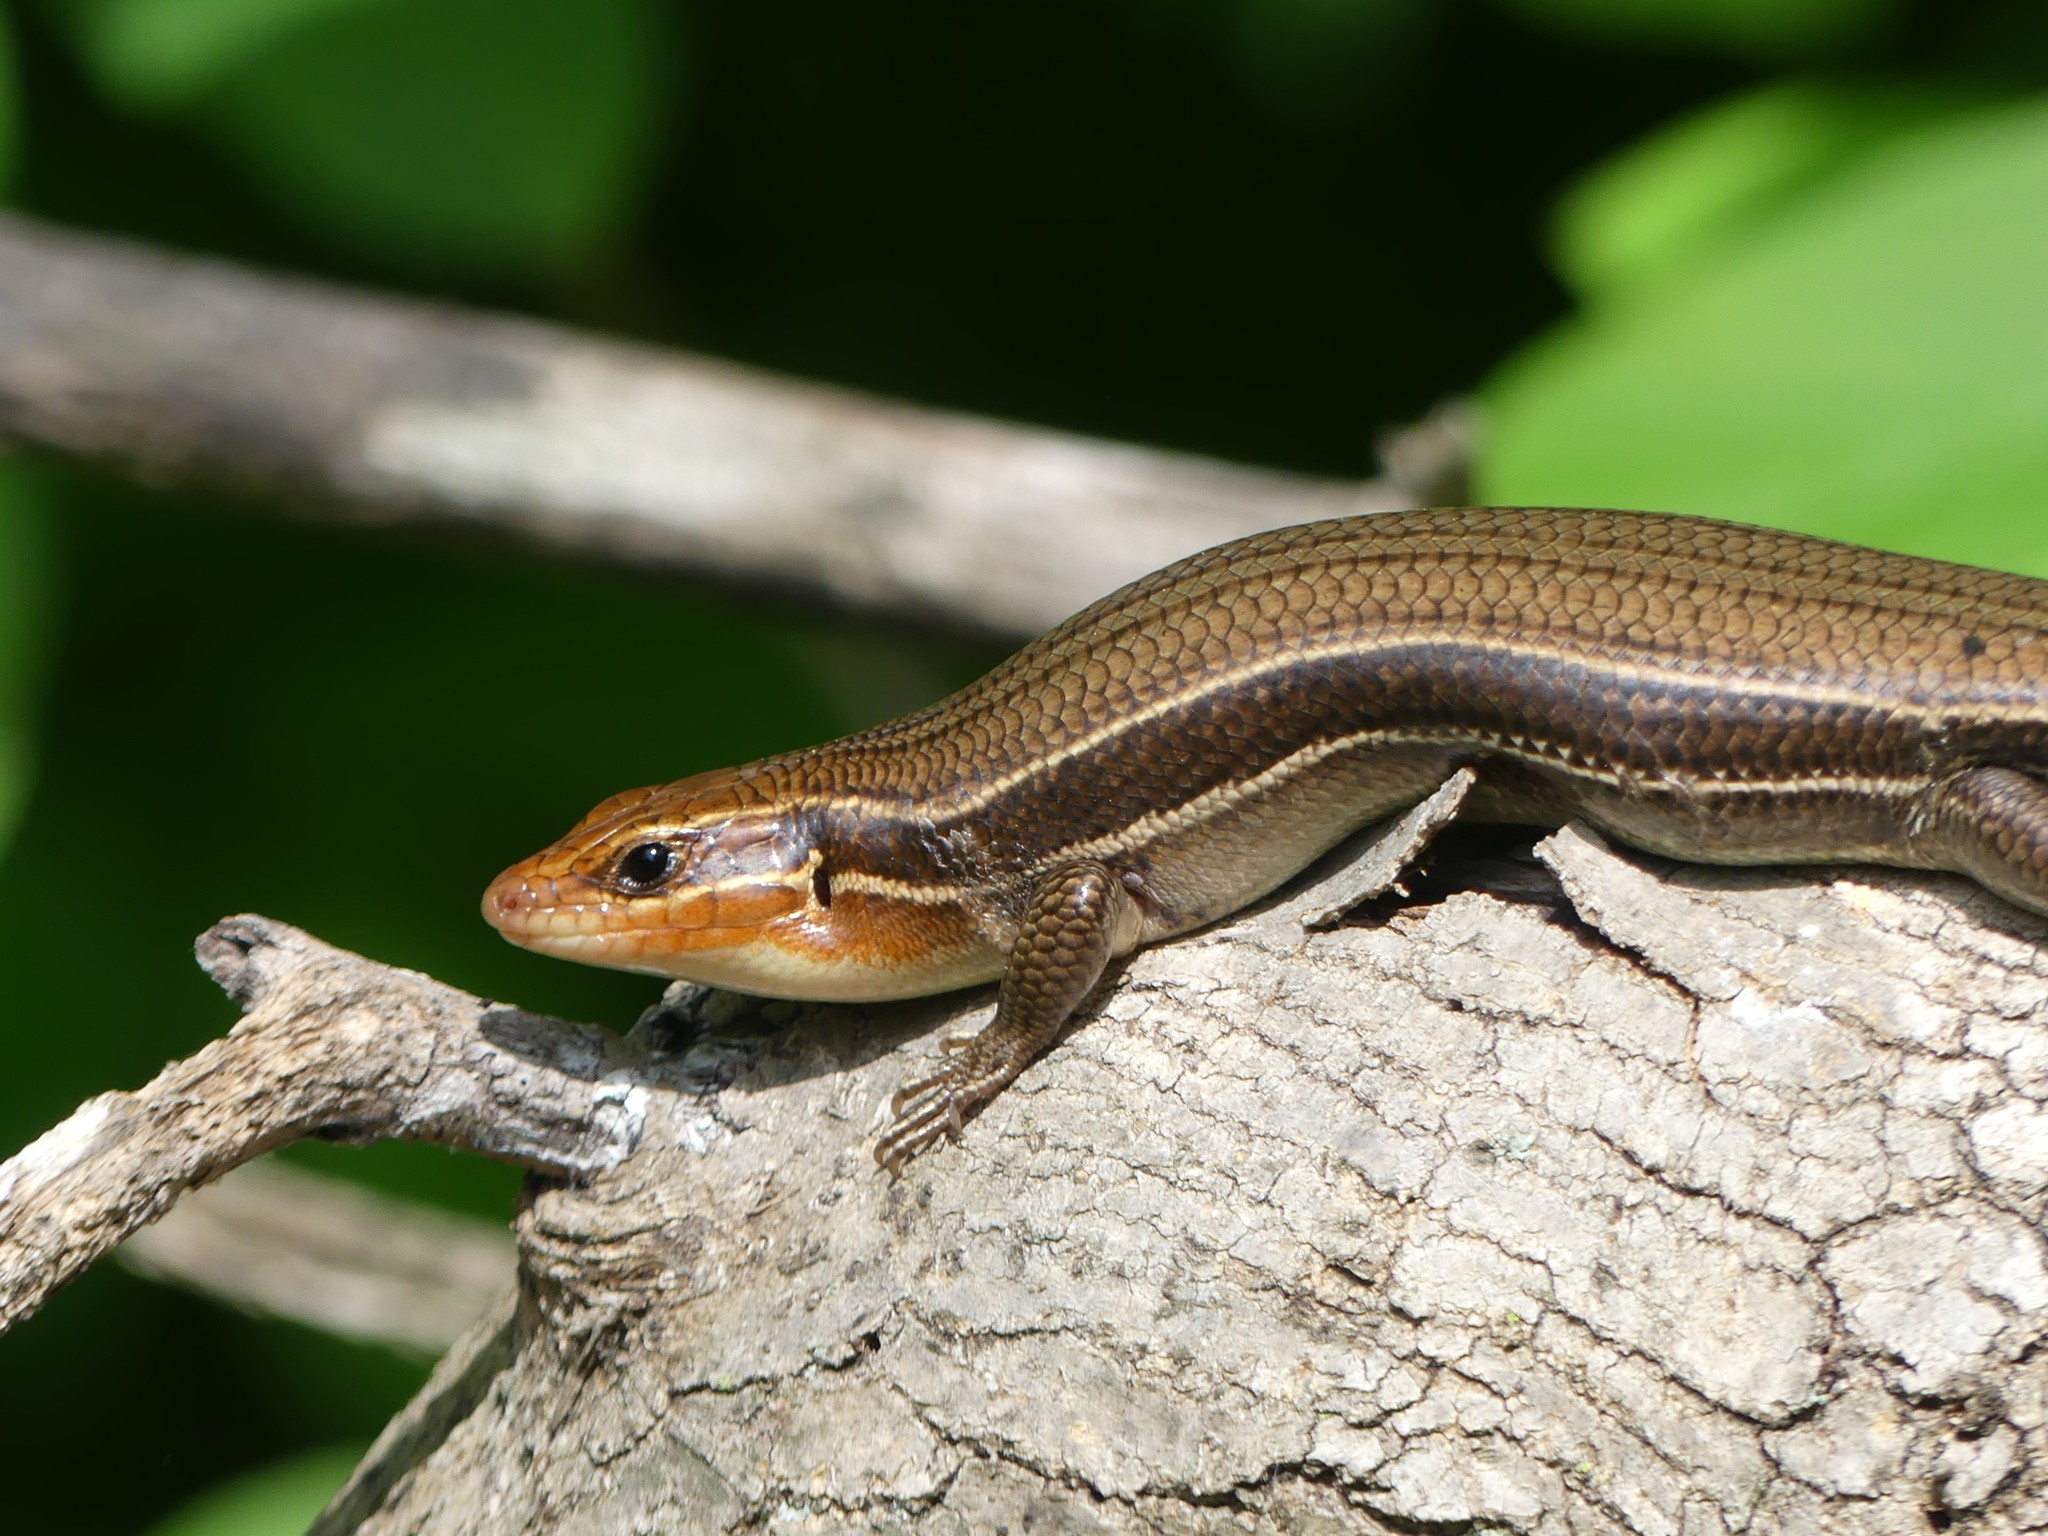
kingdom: Animalia
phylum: Chordata
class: Squamata
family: Scincidae
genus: Plestiodon
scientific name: Plestiodon laticeps
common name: Broadhead skink
